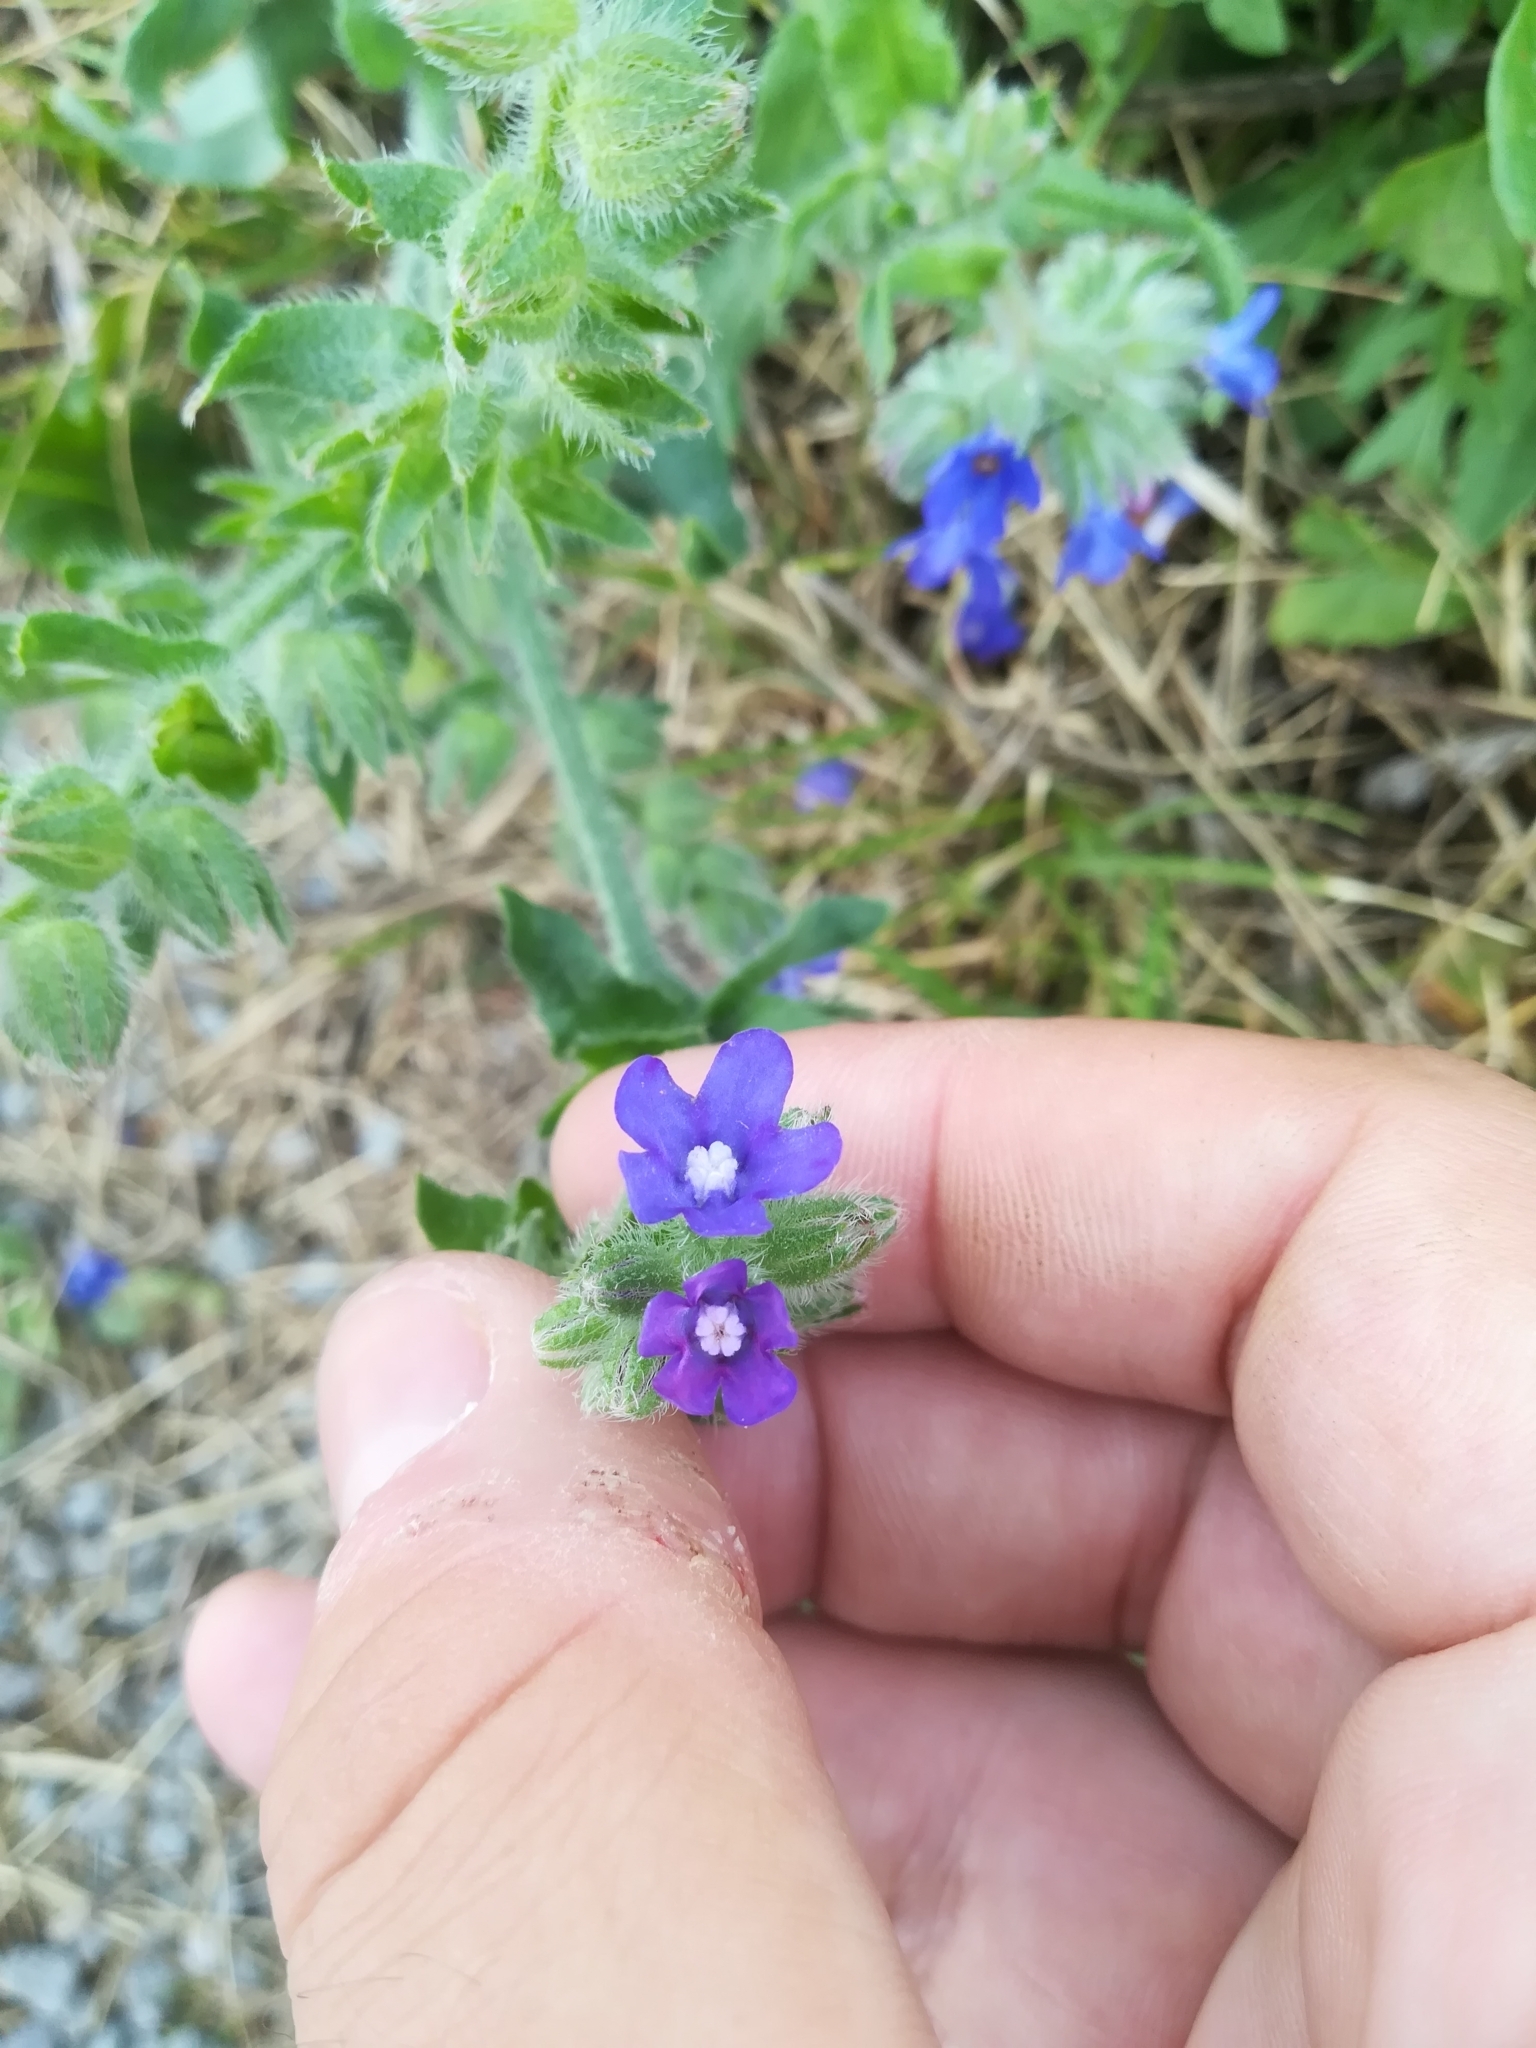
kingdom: Plantae
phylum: Tracheophyta
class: Magnoliopsida
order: Boraginales
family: Boraginaceae
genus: Anchusa
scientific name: Anchusa officinalis
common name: Alkanet
